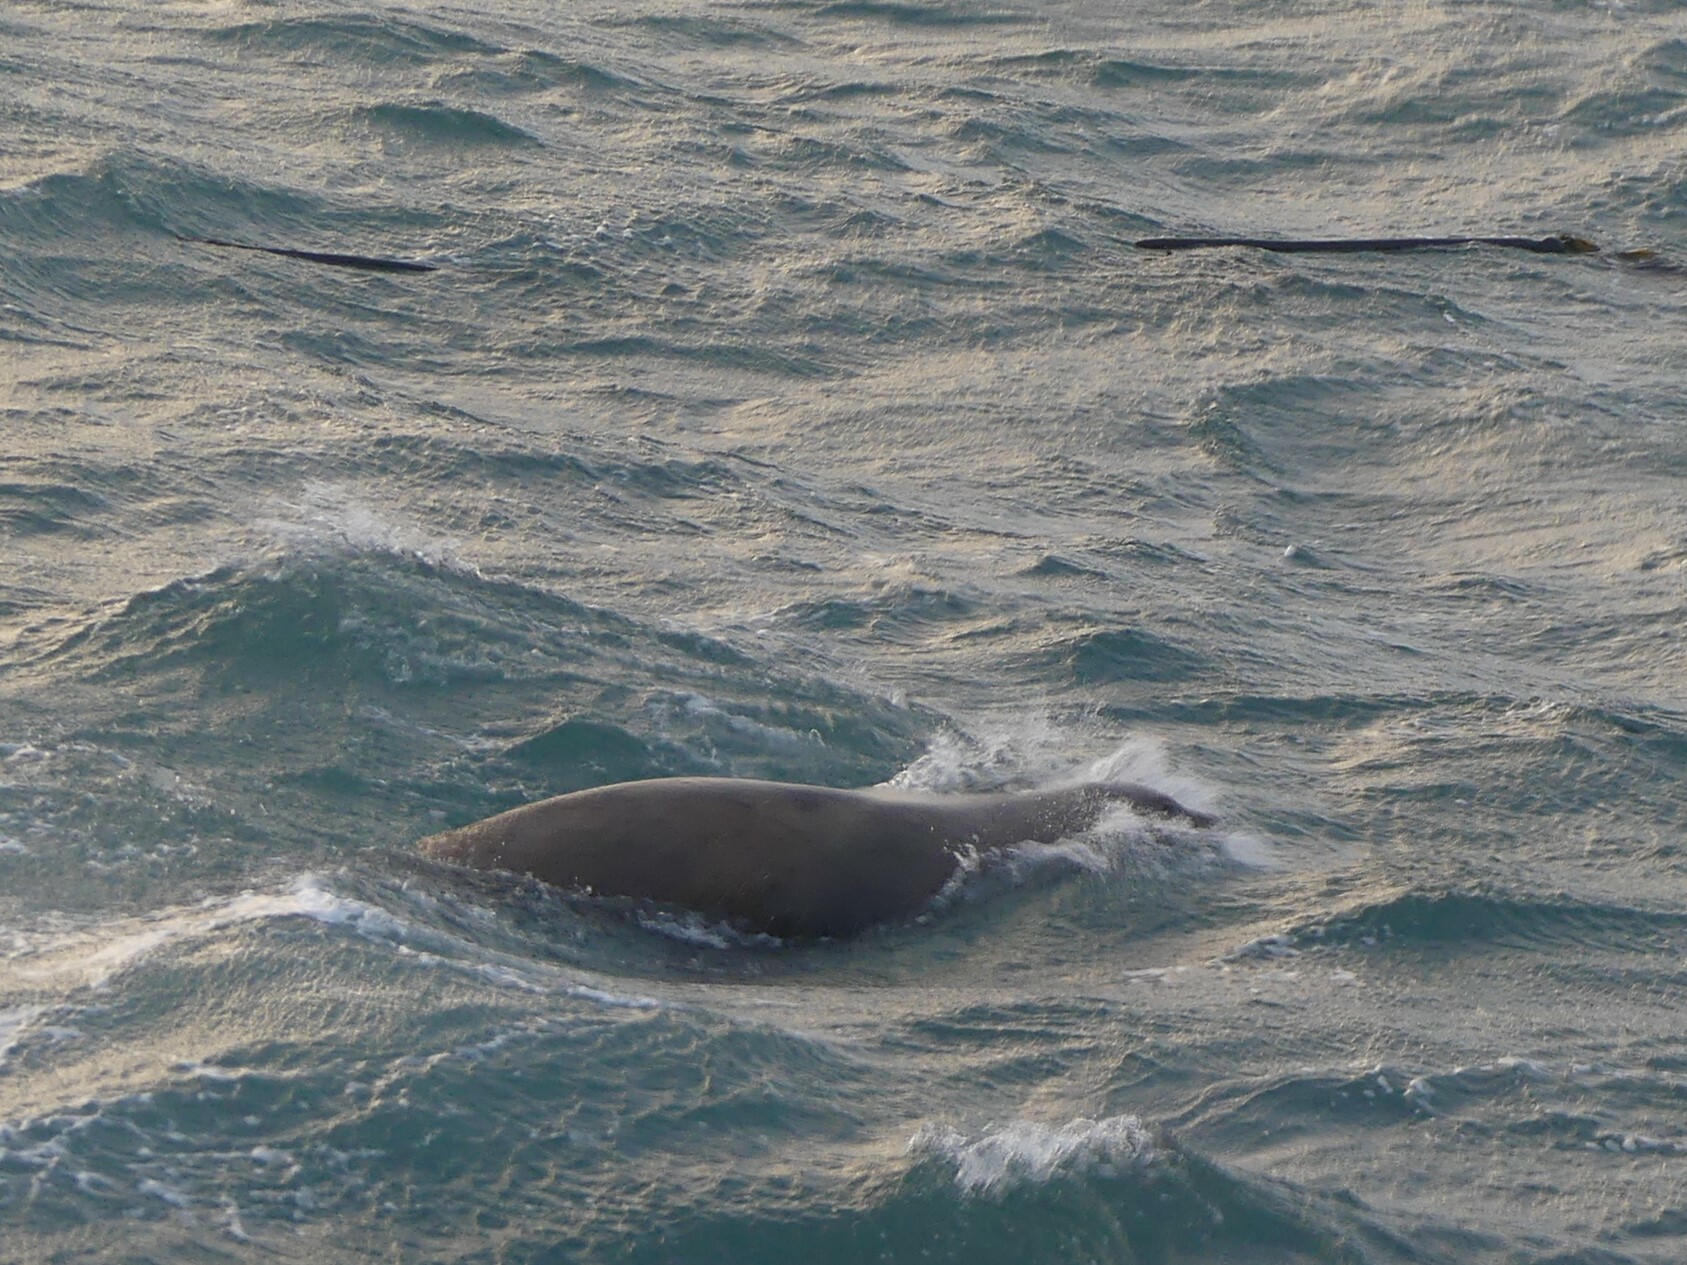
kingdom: Animalia
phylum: Chordata
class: Mammalia
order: Carnivora
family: Otariidae
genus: Eumetopias
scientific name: Eumetopias jubatus
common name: Steller sea lion
